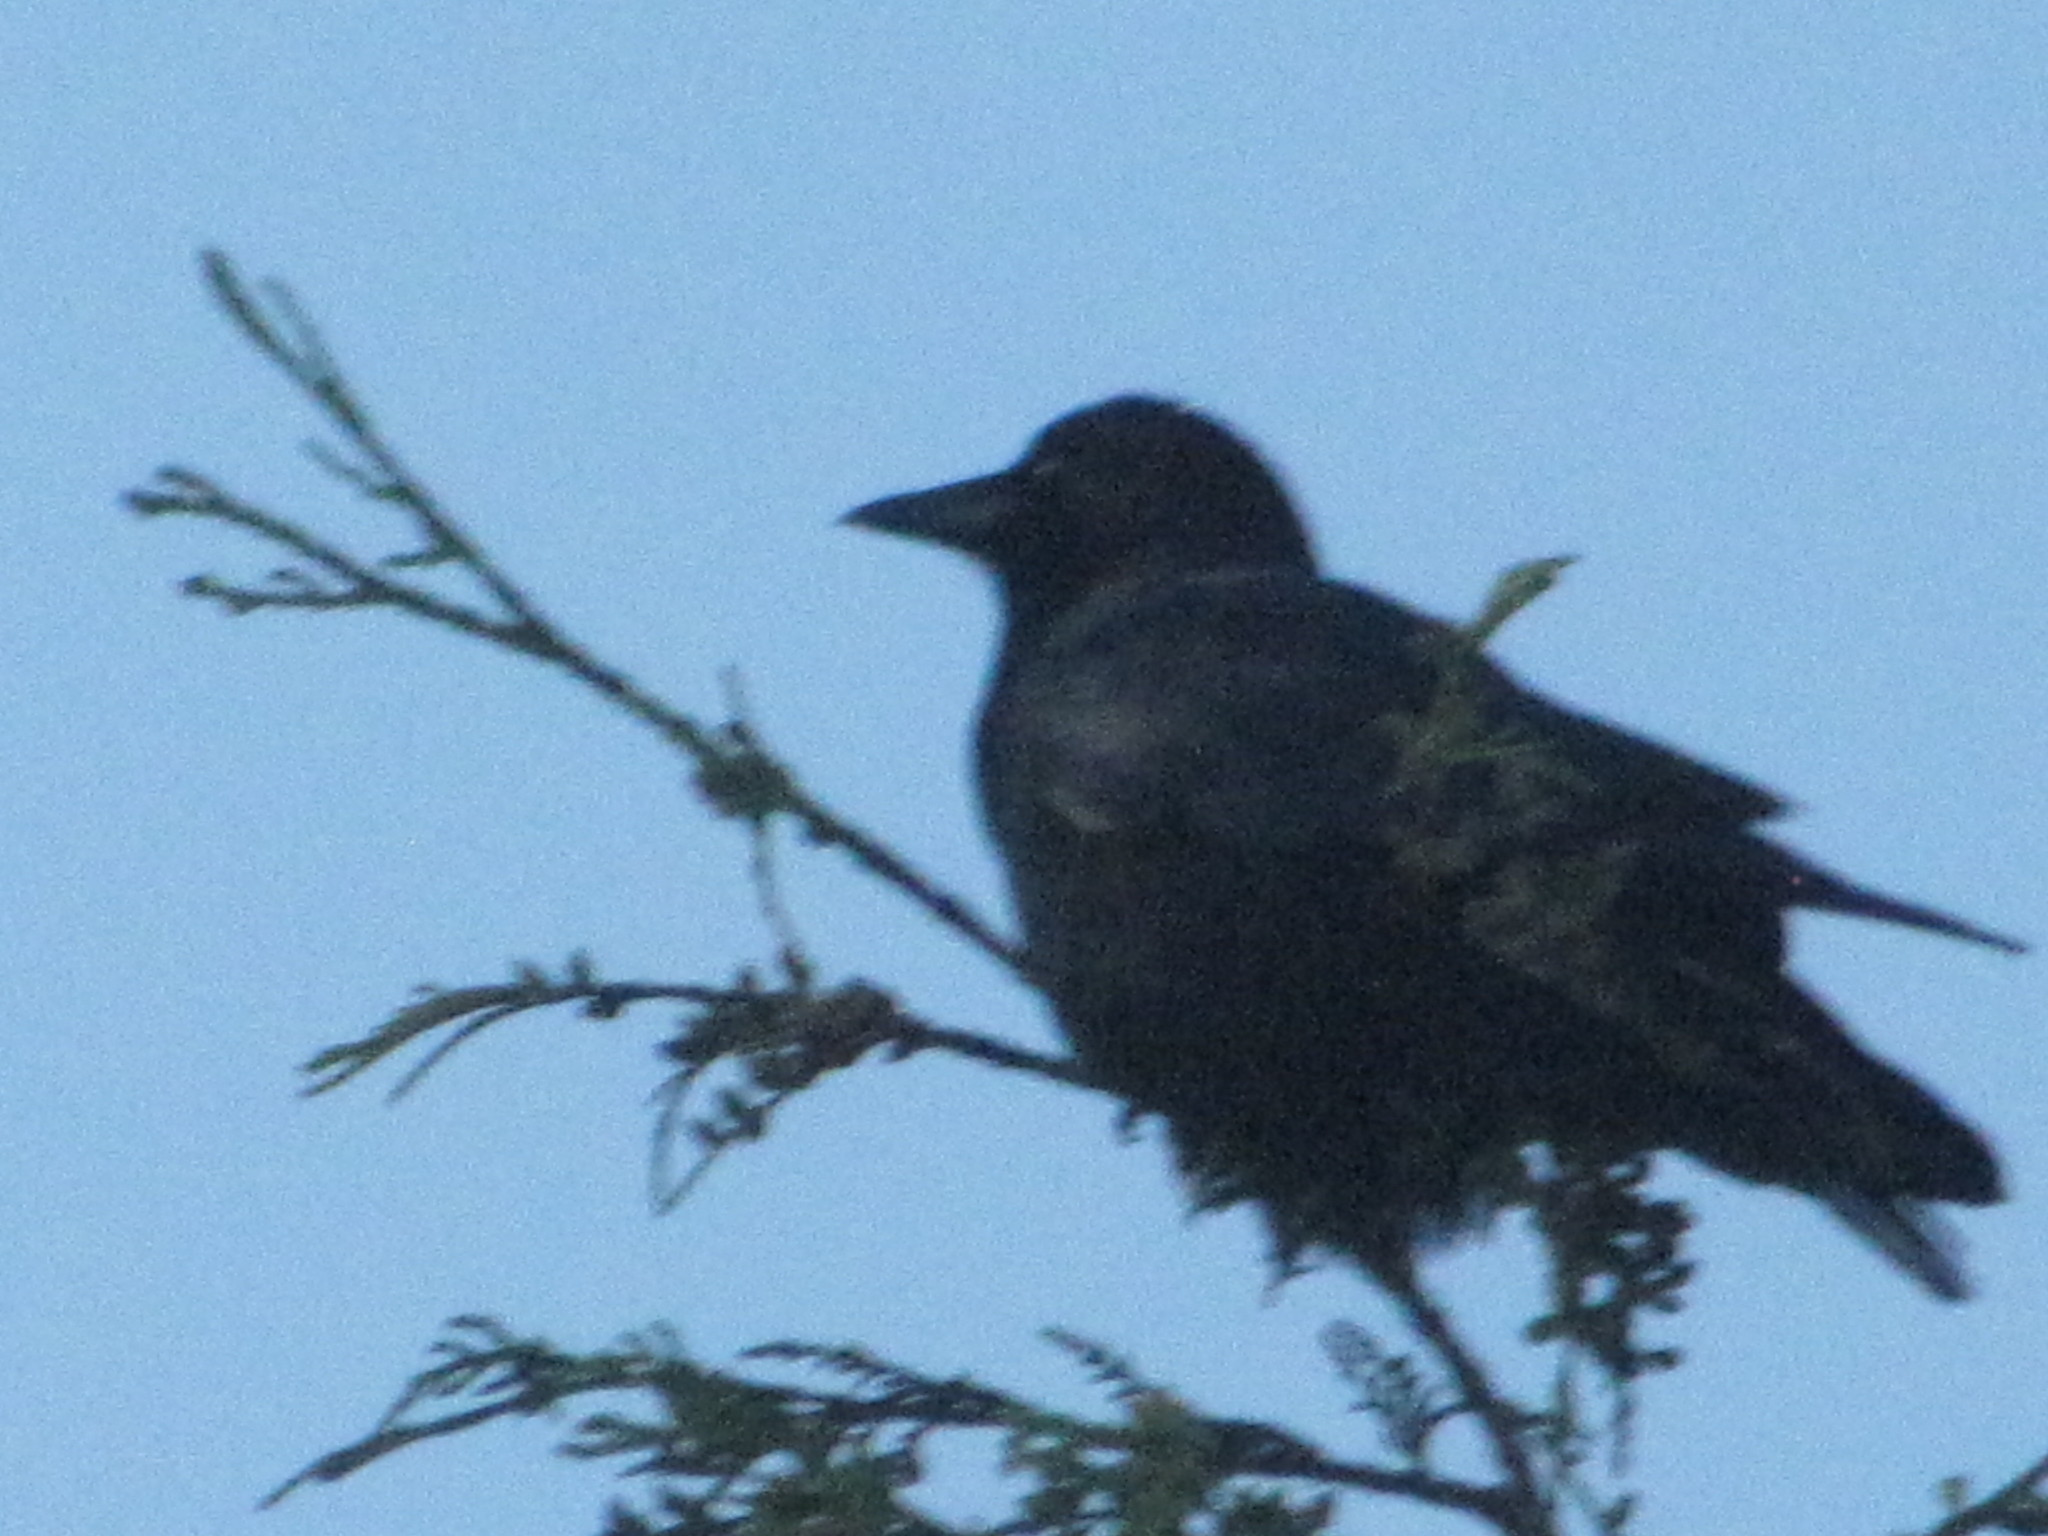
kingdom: Animalia
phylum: Chordata
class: Aves
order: Passeriformes
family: Corvidae
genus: Corvus
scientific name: Corvus brachyrhynchos
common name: American crow
